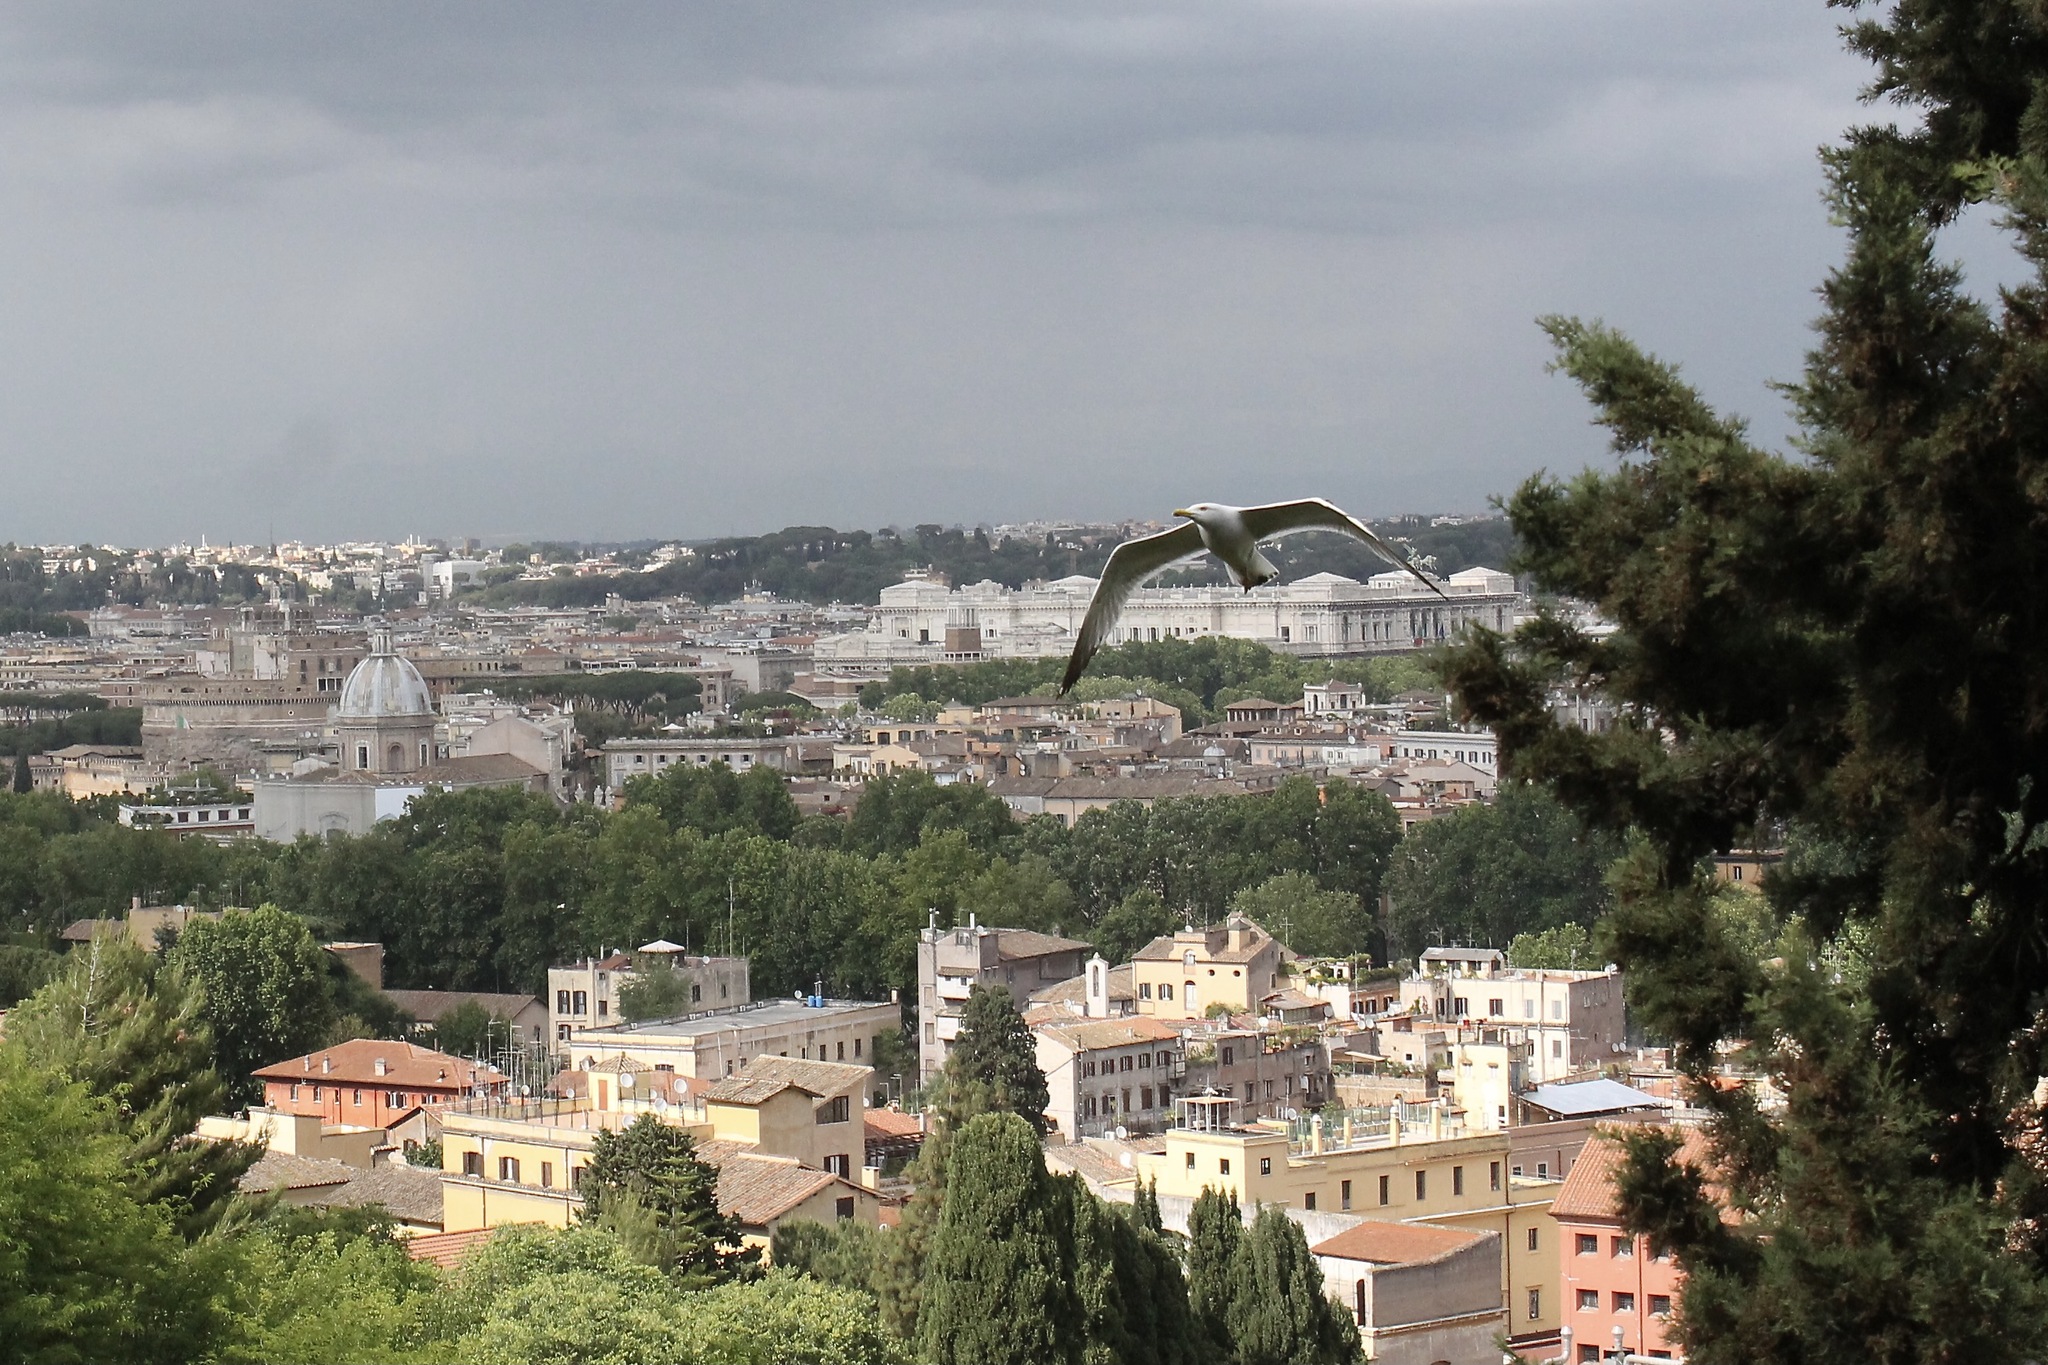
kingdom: Animalia
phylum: Chordata
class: Aves
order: Charadriiformes
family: Laridae
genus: Larus
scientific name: Larus michahellis
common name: Yellow-legged gull
